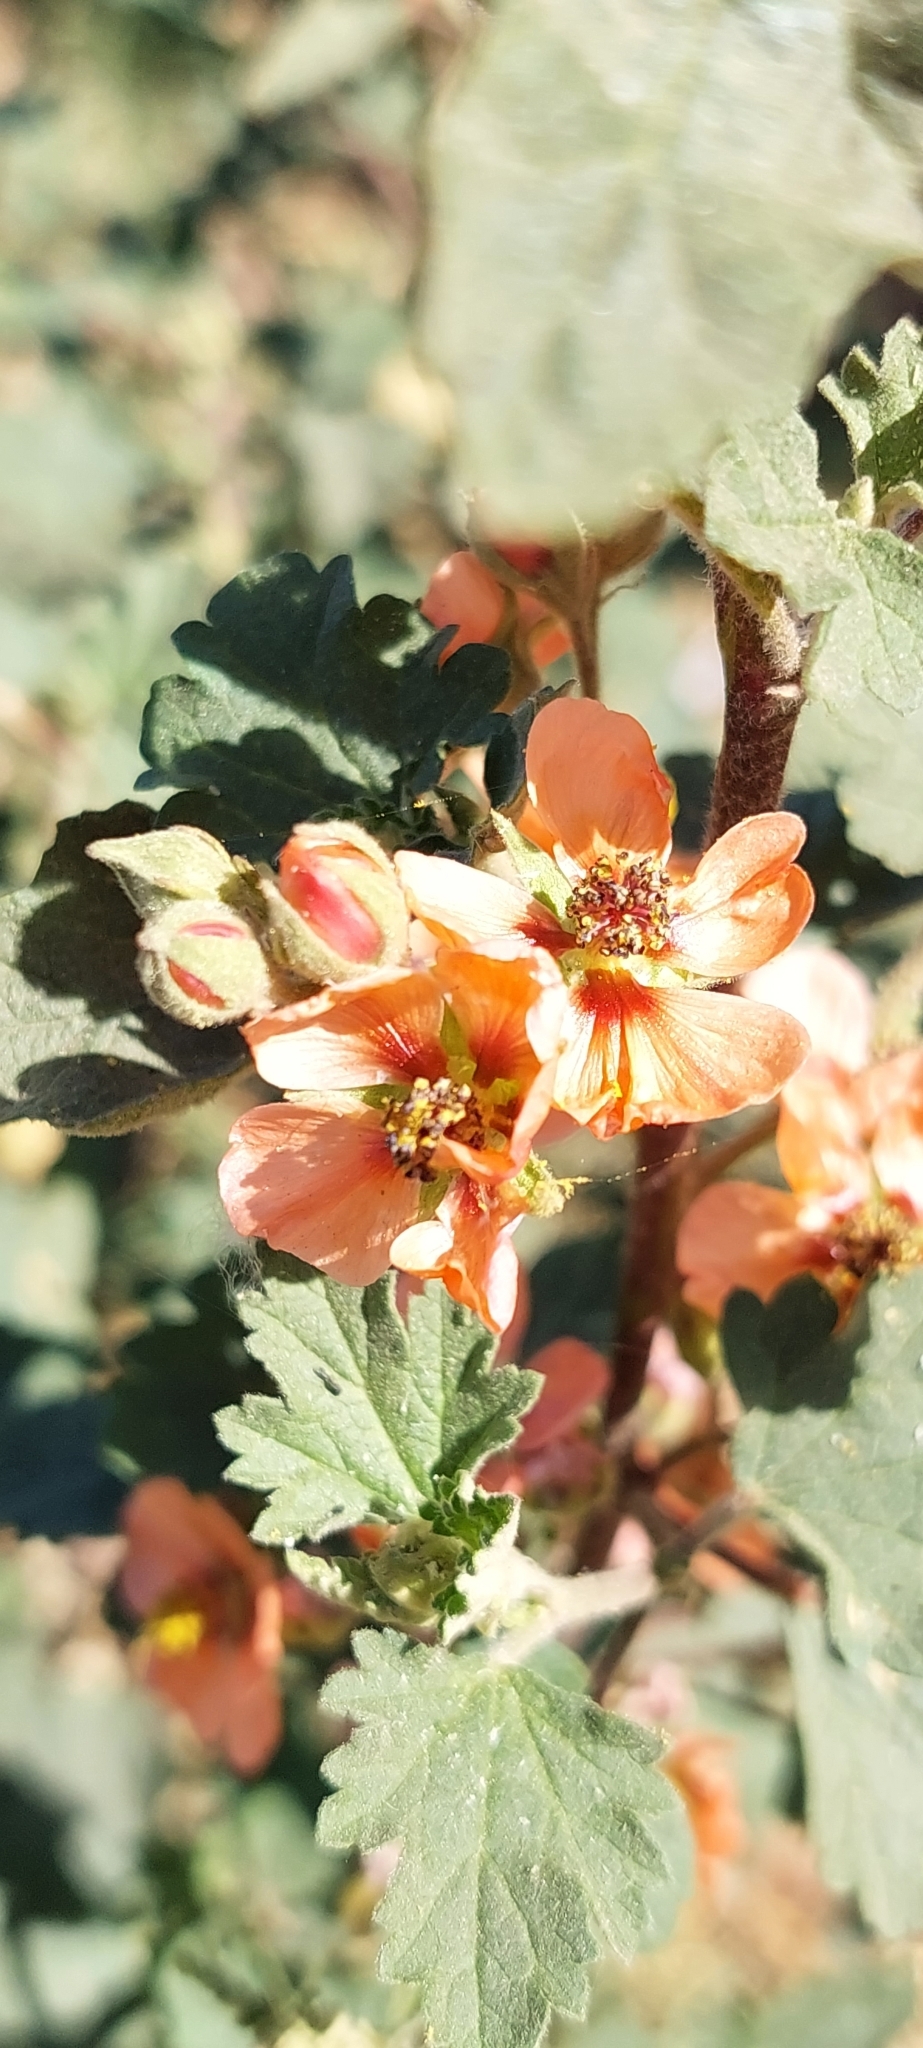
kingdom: Plantae
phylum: Tracheophyta
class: Magnoliopsida
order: Malvales
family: Malvaceae
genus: Sphaeralcea
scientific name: Sphaeralcea bonariensis
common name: Latin globemallow
